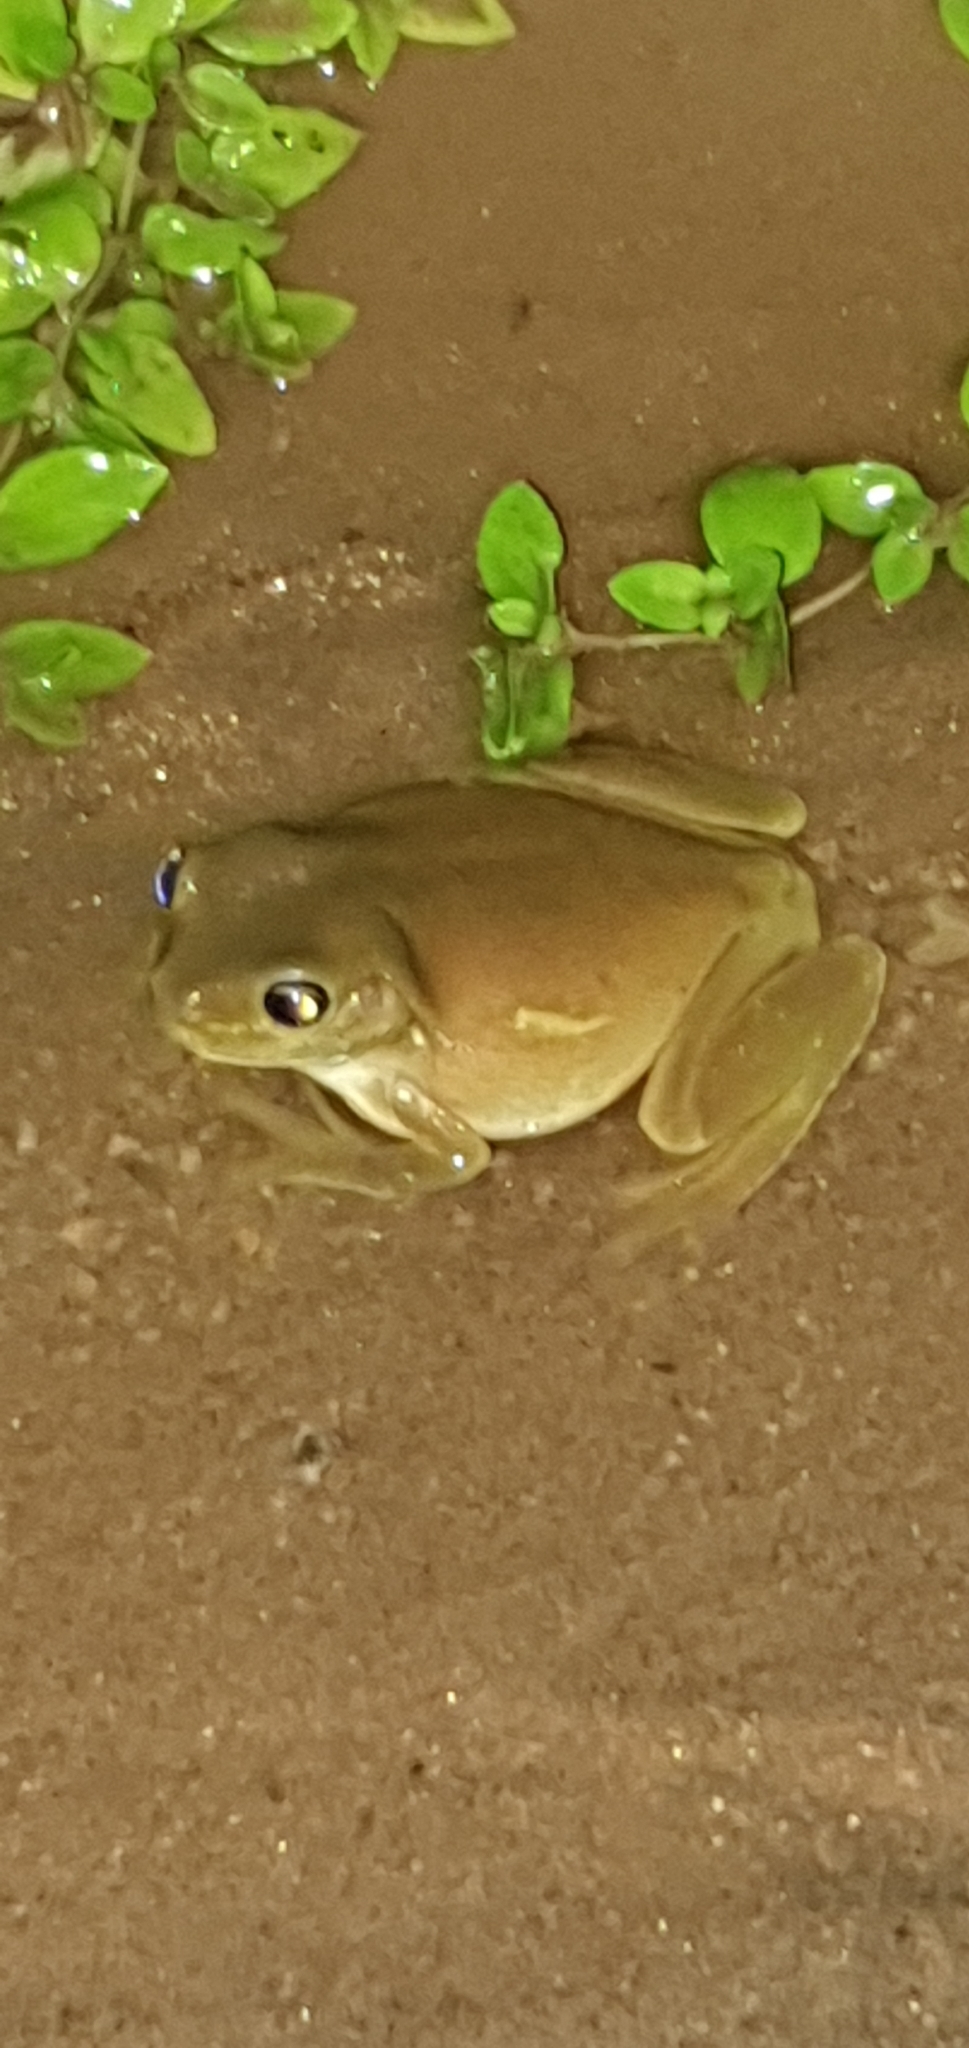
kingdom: Animalia
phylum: Chordata
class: Amphibia
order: Anura
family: Pelodryadidae
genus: Ranoidea
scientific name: Ranoidea caerulea
